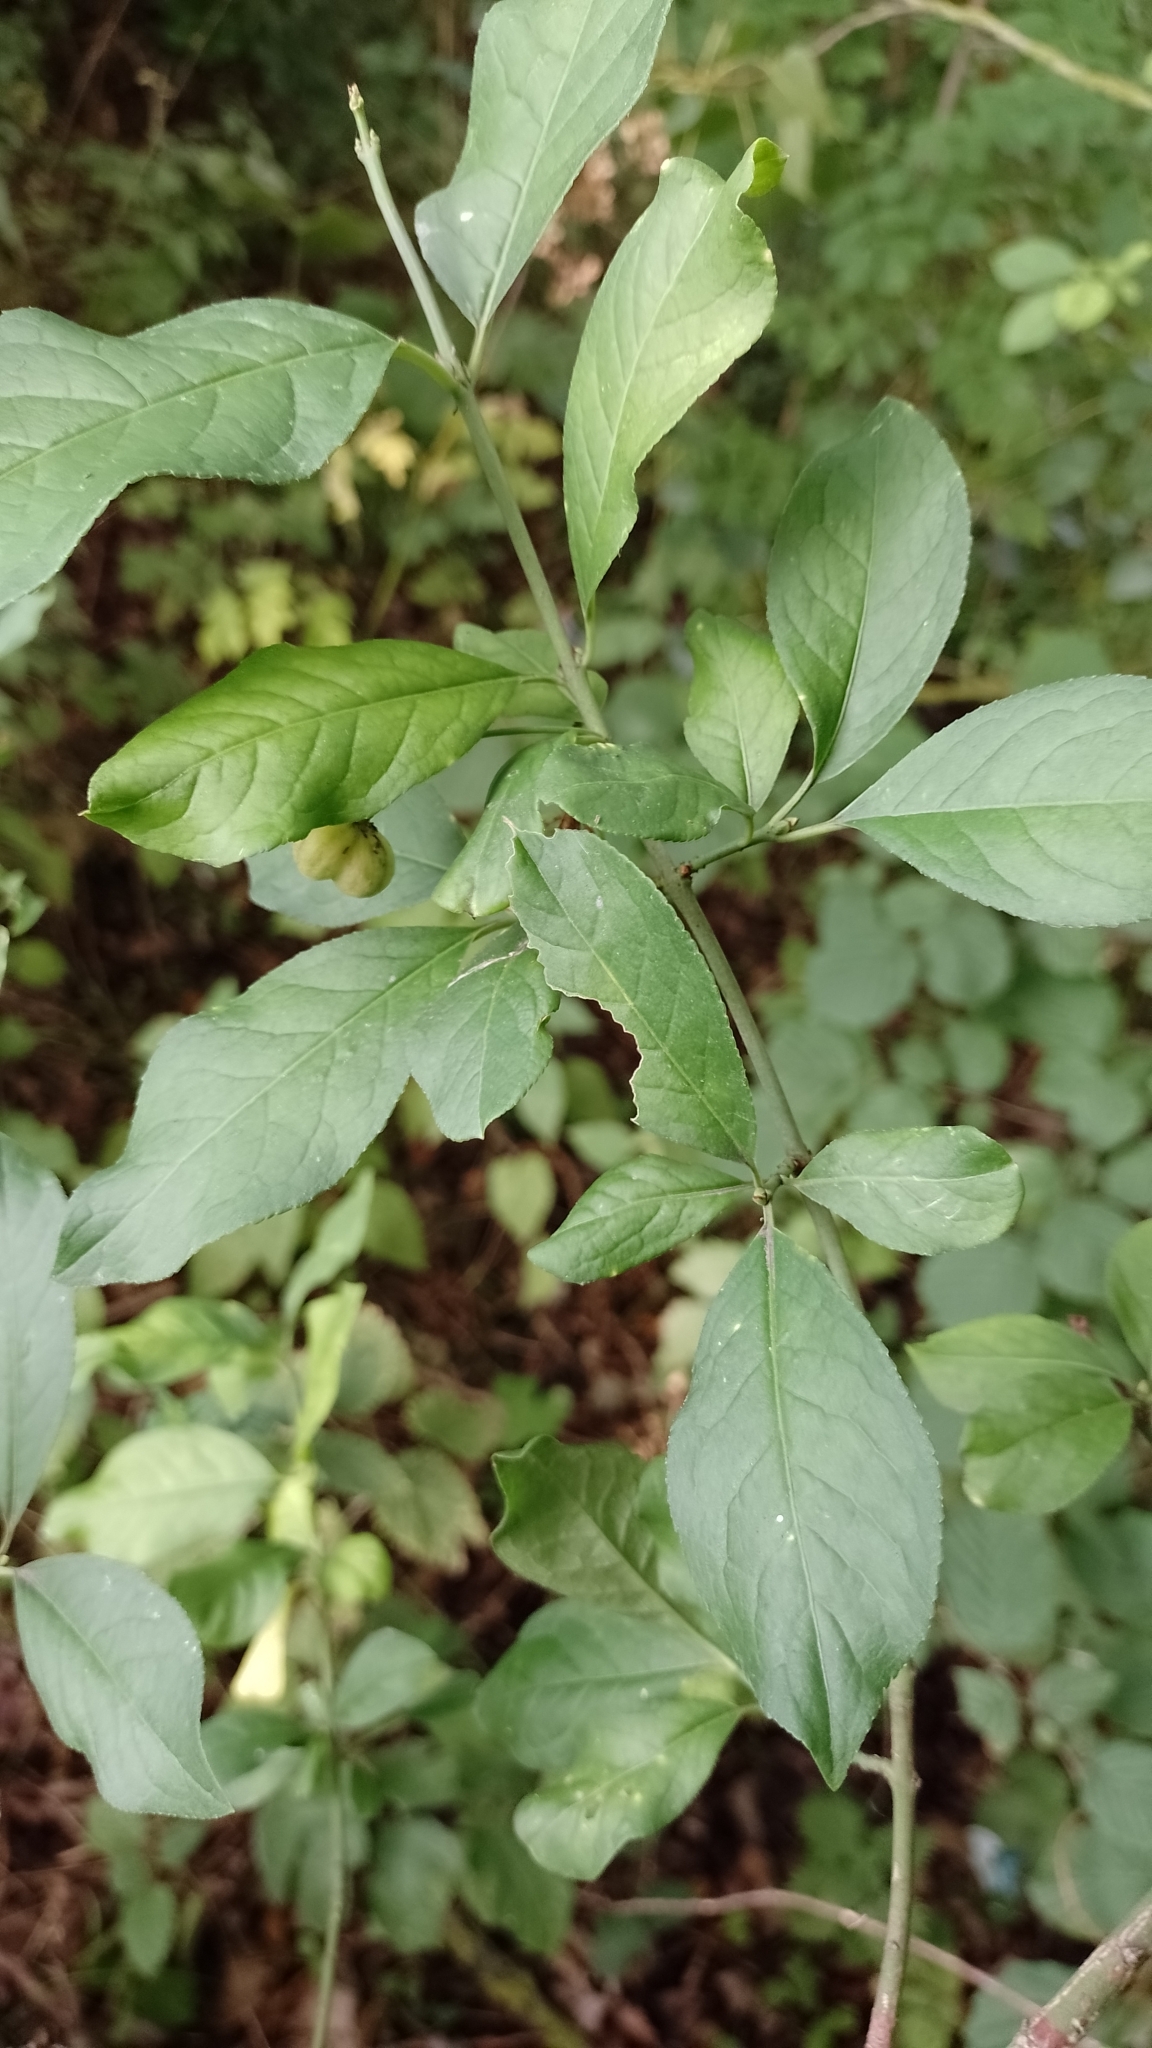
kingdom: Plantae
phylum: Tracheophyta
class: Magnoliopsida
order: Celastrales
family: Celastraceae
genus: Euonymus
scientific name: Euonymus europaeus
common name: Spindle
